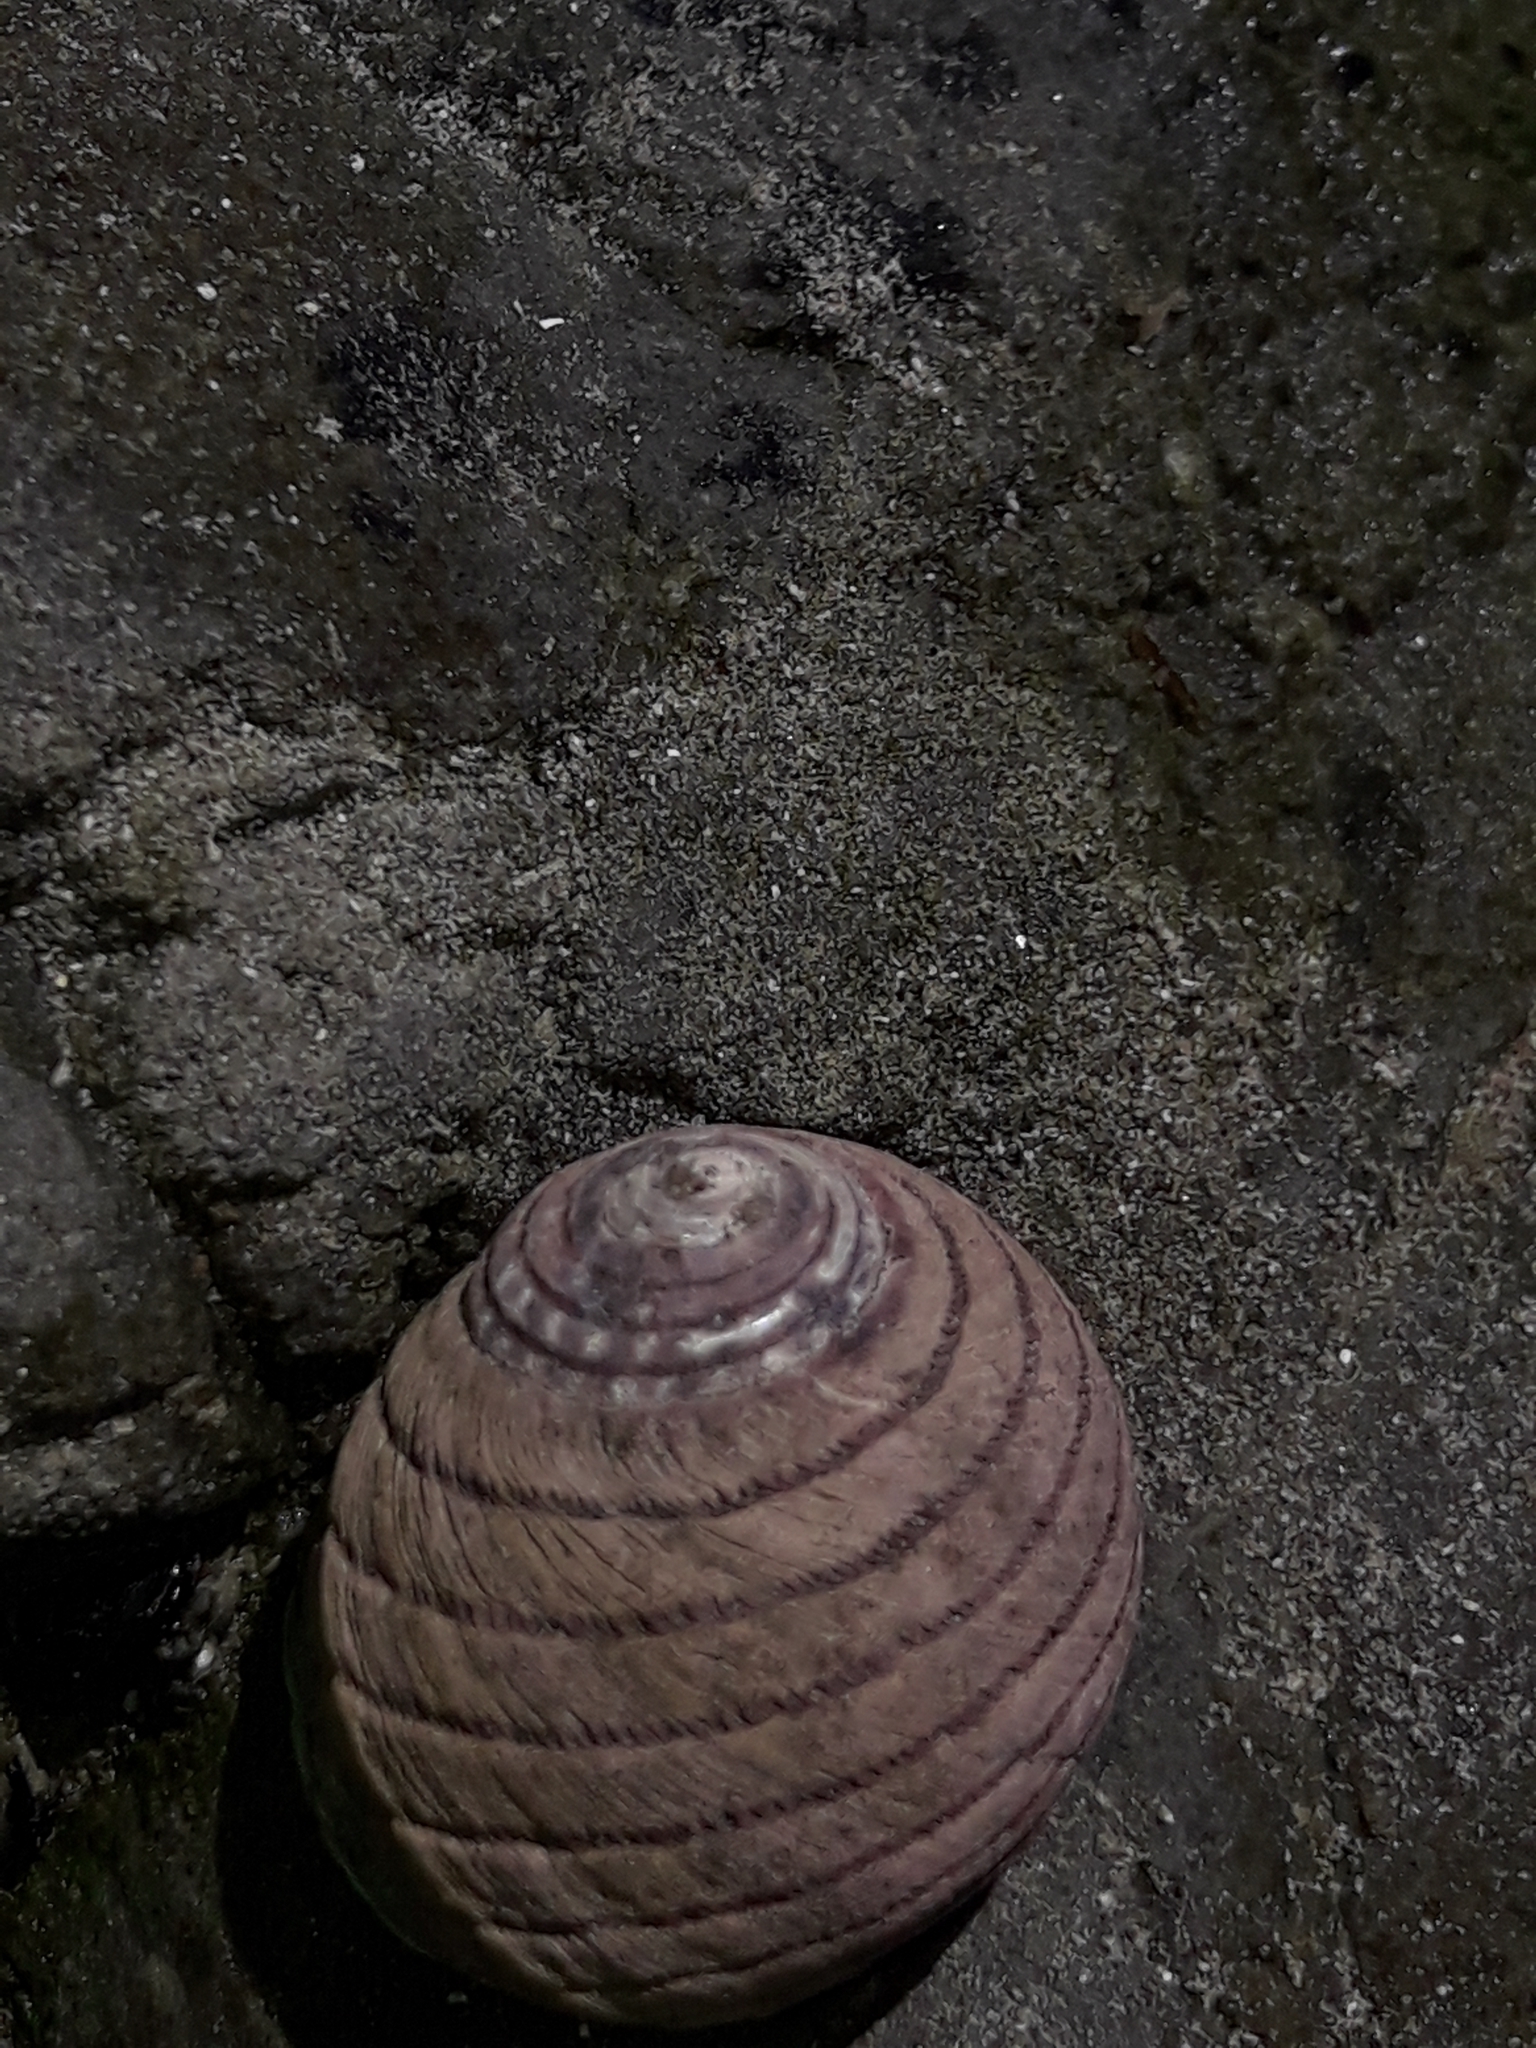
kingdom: Animalia
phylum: Mollusca
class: Gastropoda
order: Trochida
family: Trochidae
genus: Diloma
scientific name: Diloma aethiops
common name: Scorched monodont
